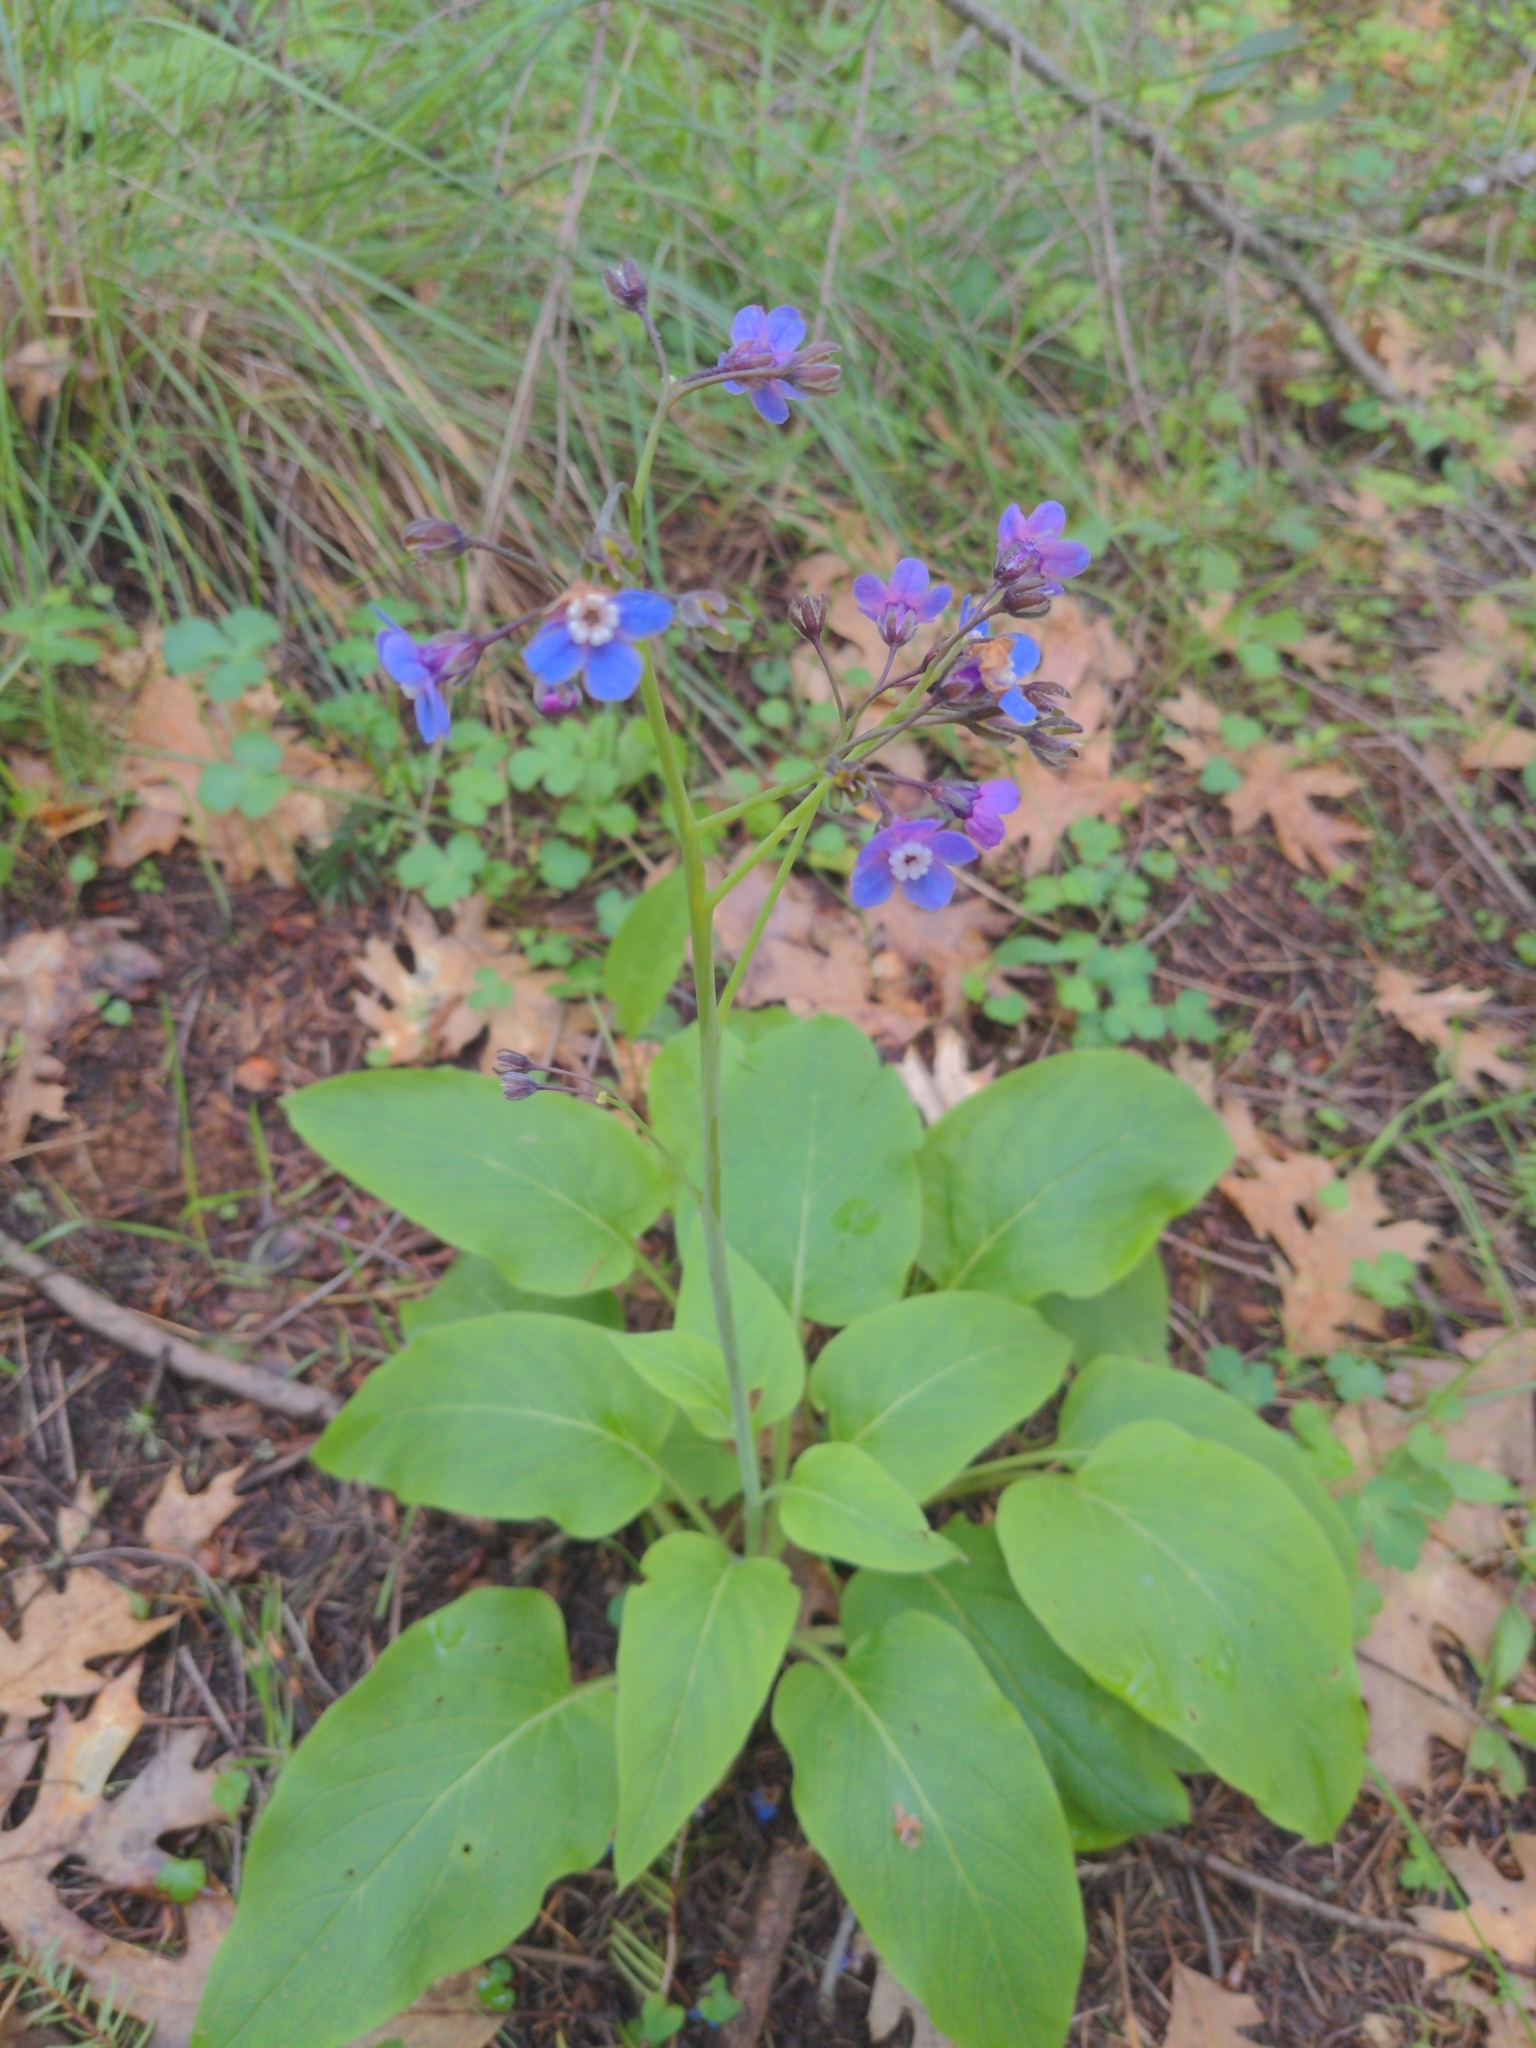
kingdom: Plantae
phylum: Tracheophyta
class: Magnoliopsida
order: Boraginales
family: Boraginaceae
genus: Adelinia
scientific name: Adelinia grande
